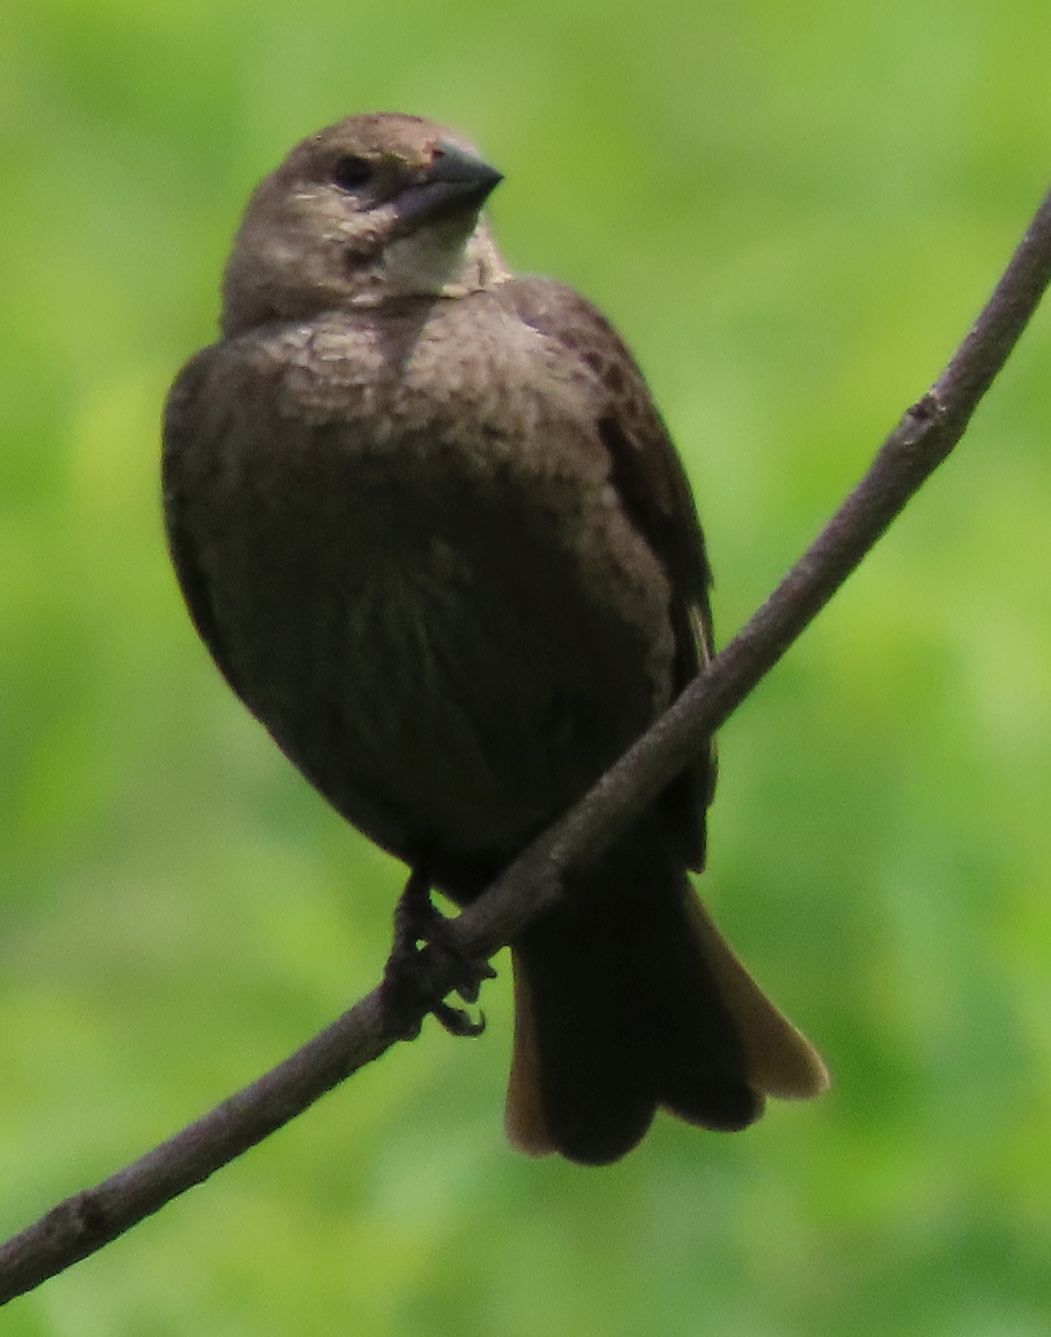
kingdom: Animalia
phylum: Chordata
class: Aves
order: Passeriformes
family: Icteridae
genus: Molothrus
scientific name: Molothrus ater
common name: Brown-headed cowbird
